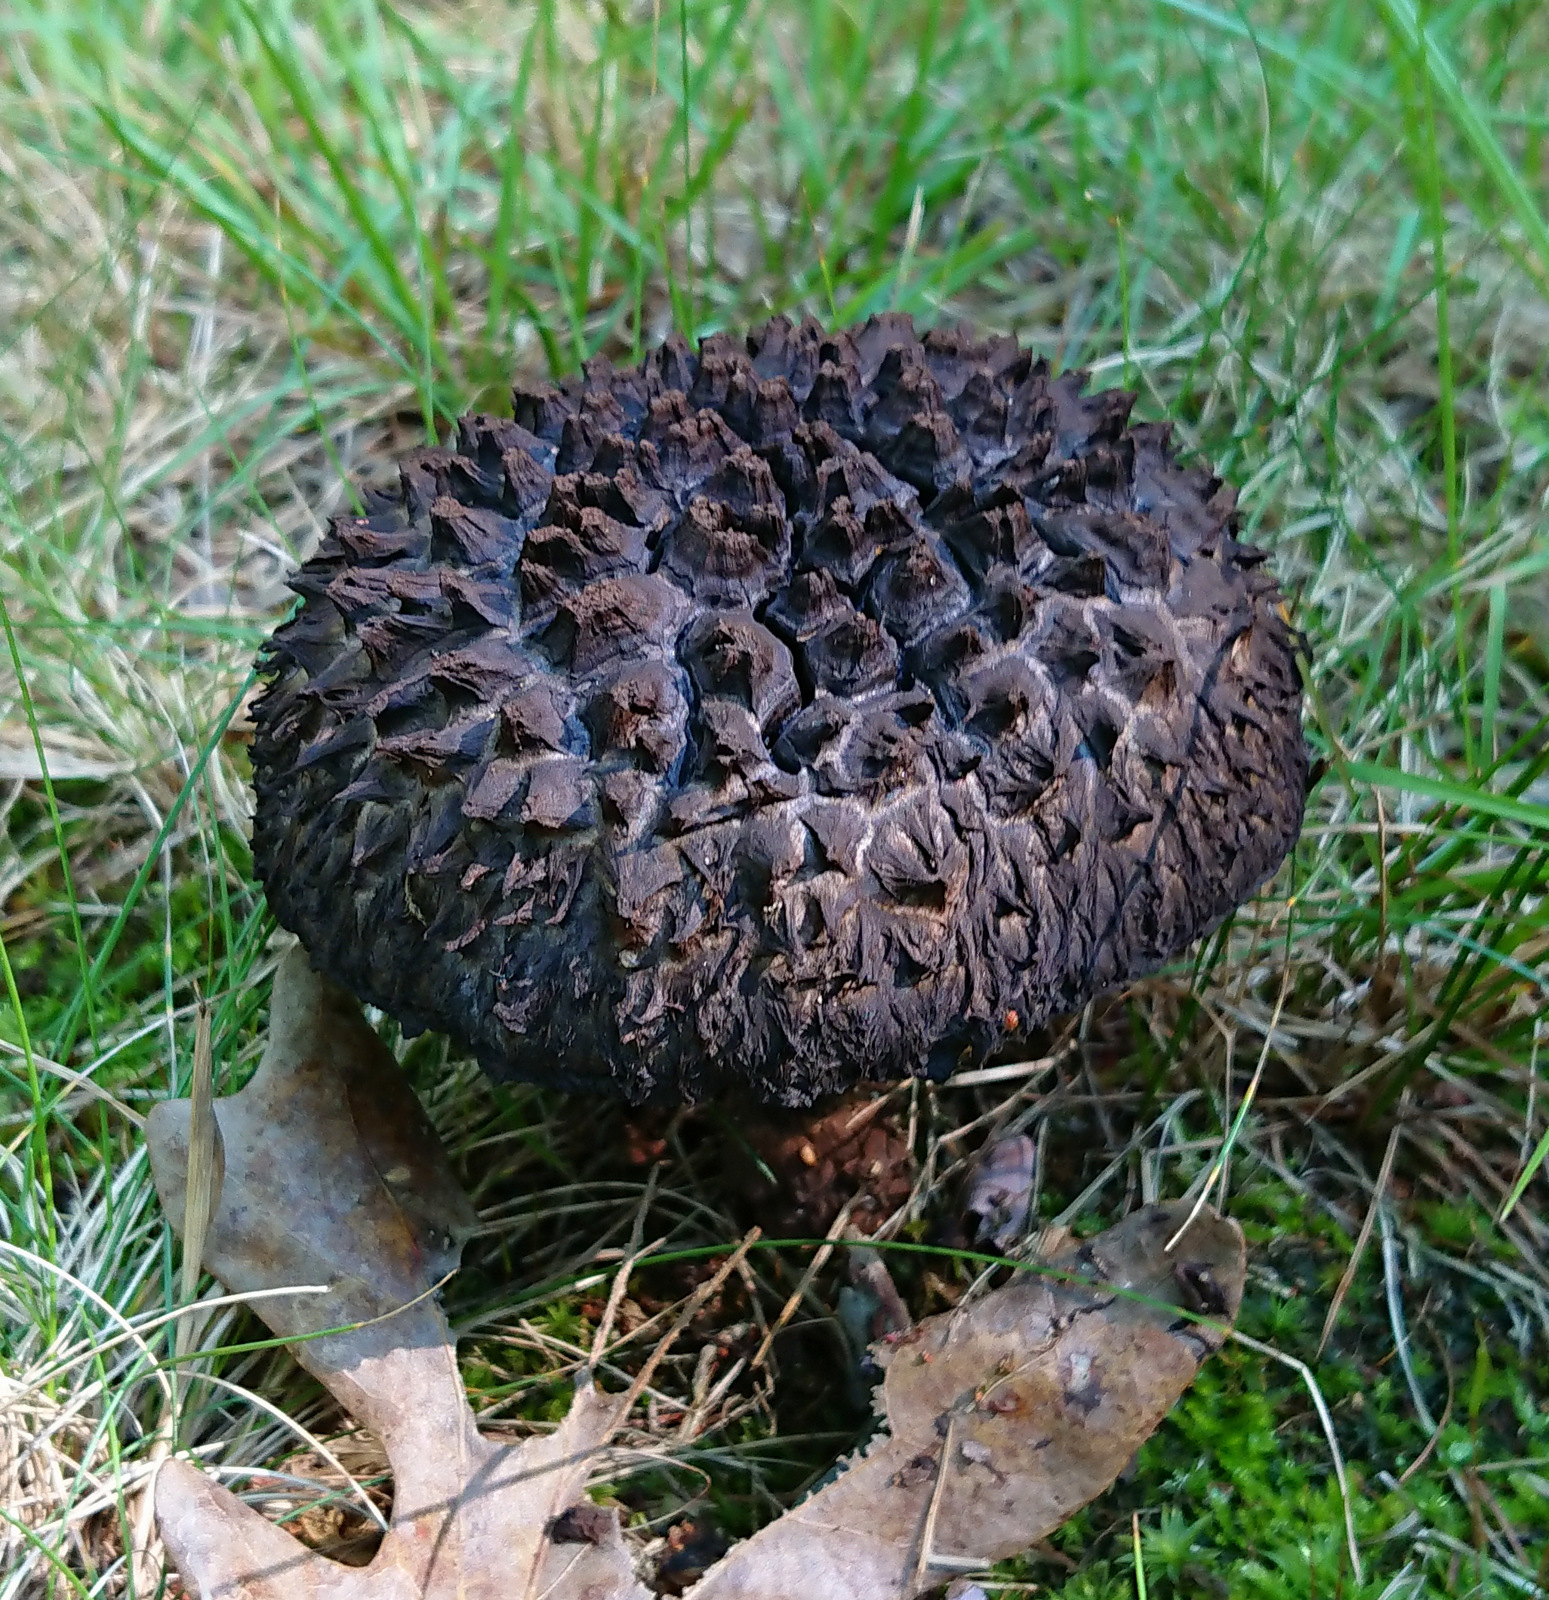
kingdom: Fungi
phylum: Basidiomycota
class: Agaricomycetes
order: Boletales
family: Boletaceae
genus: Strobilomyces
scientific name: Strobilomyces strobilaceus
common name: Old man of the woods
